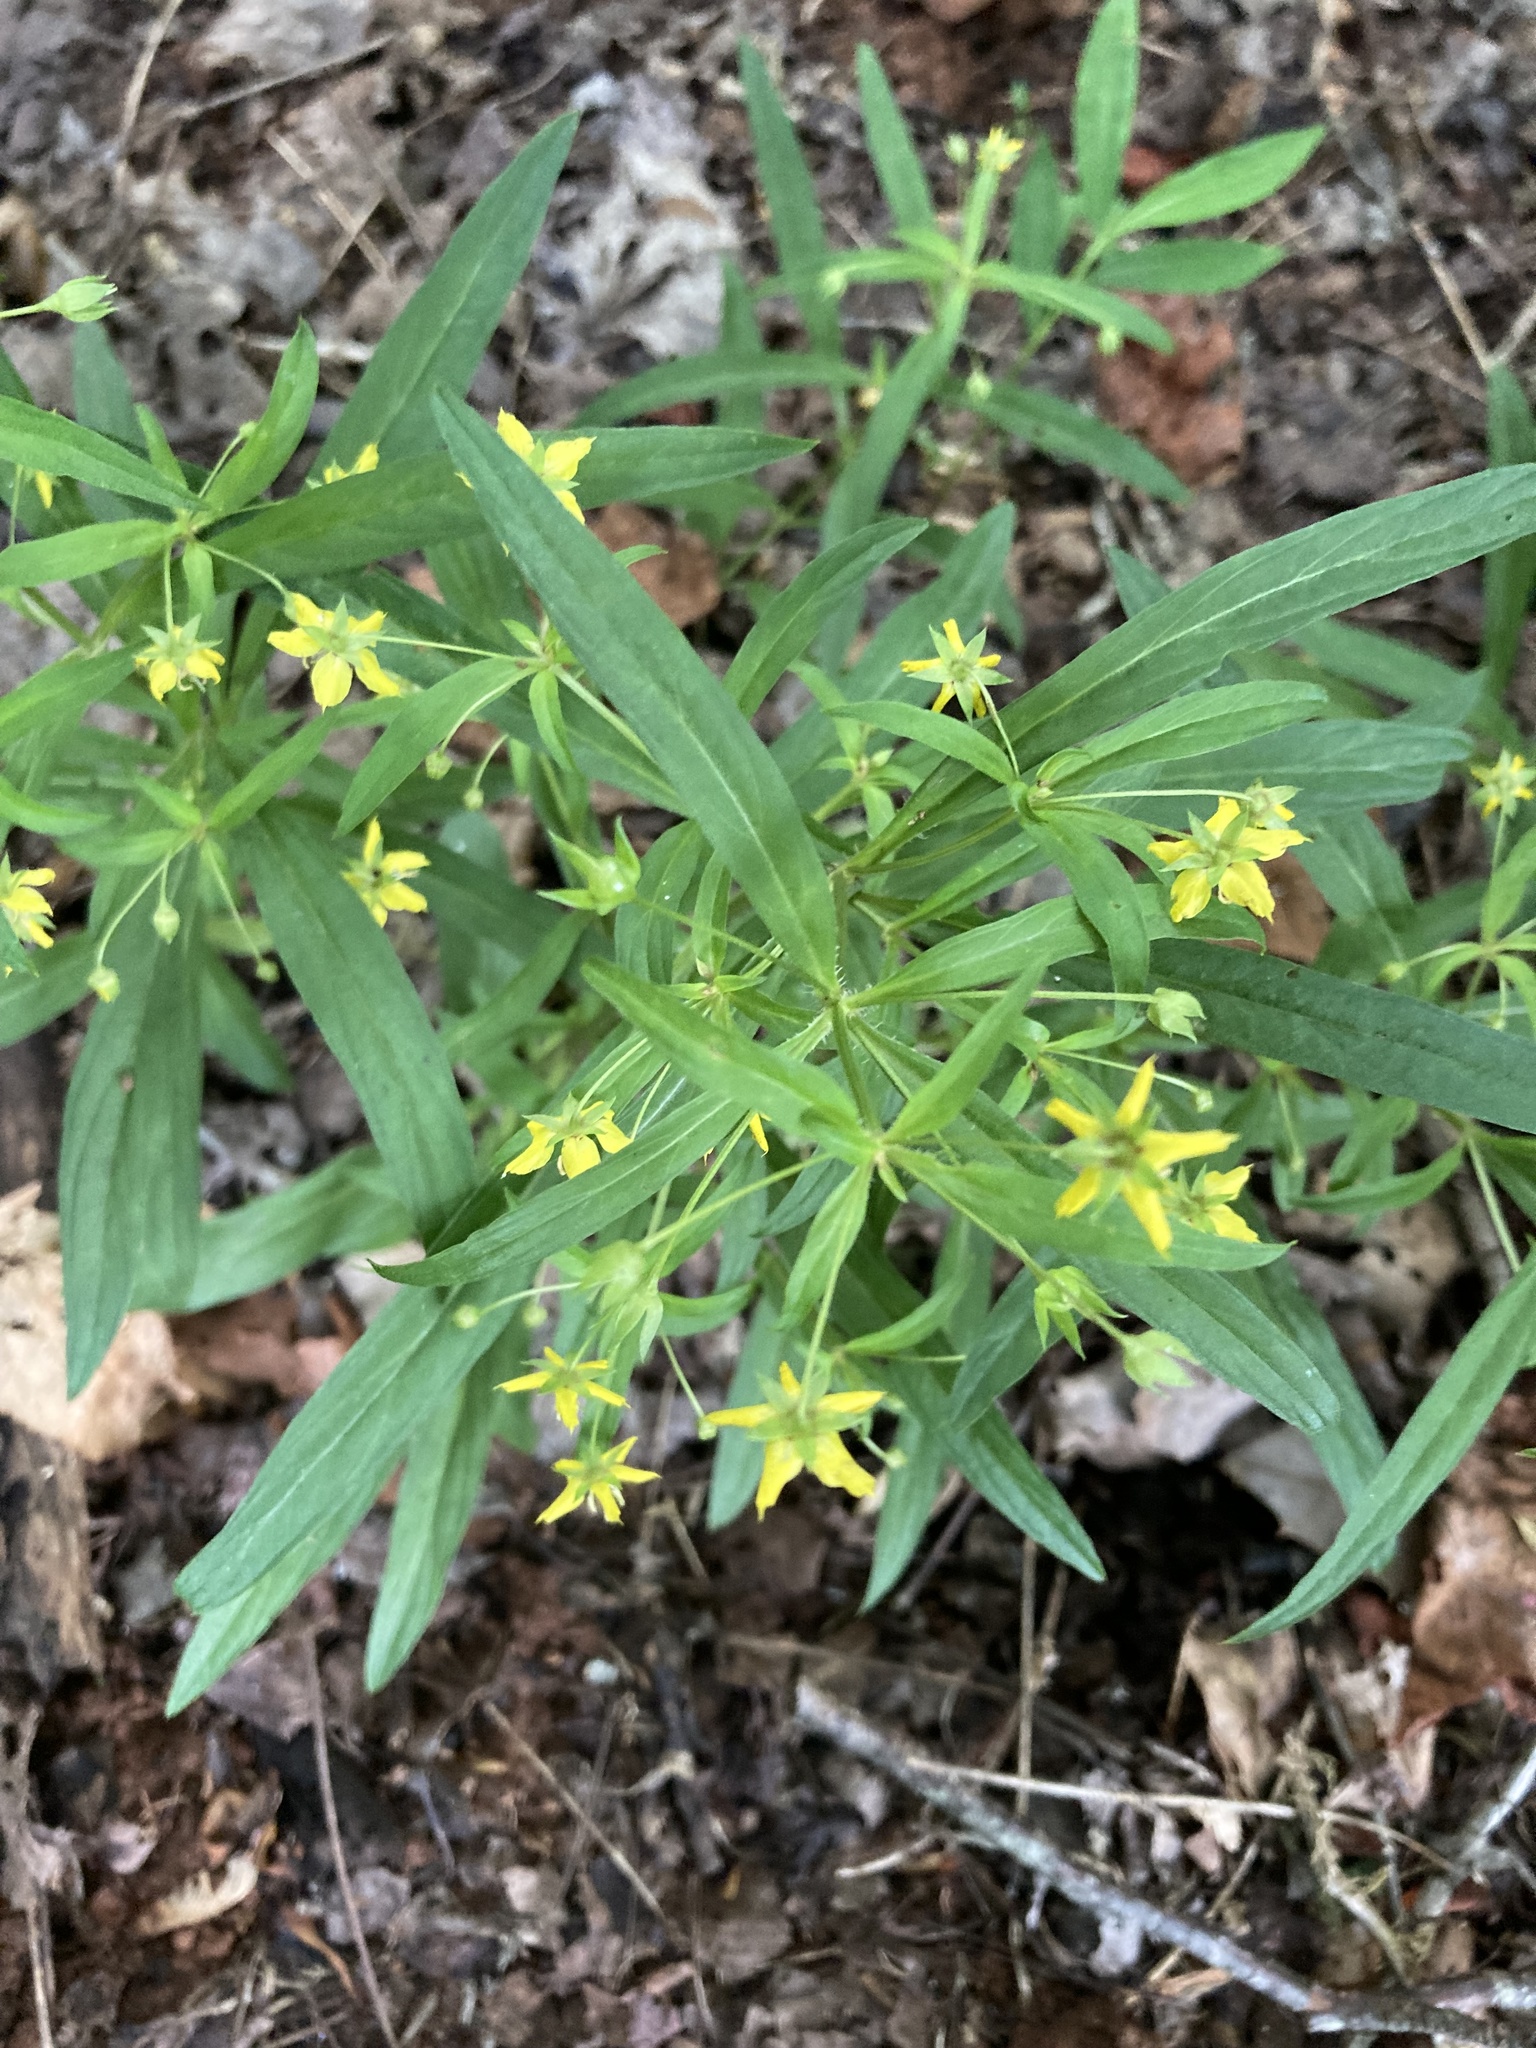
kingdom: Plantae
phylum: Tracheophyta
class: Magnoliopsida
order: Ericales
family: Primulaceae
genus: Lysimachia
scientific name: Lysimachia lanceolata
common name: Lance-leaved loosestrife
